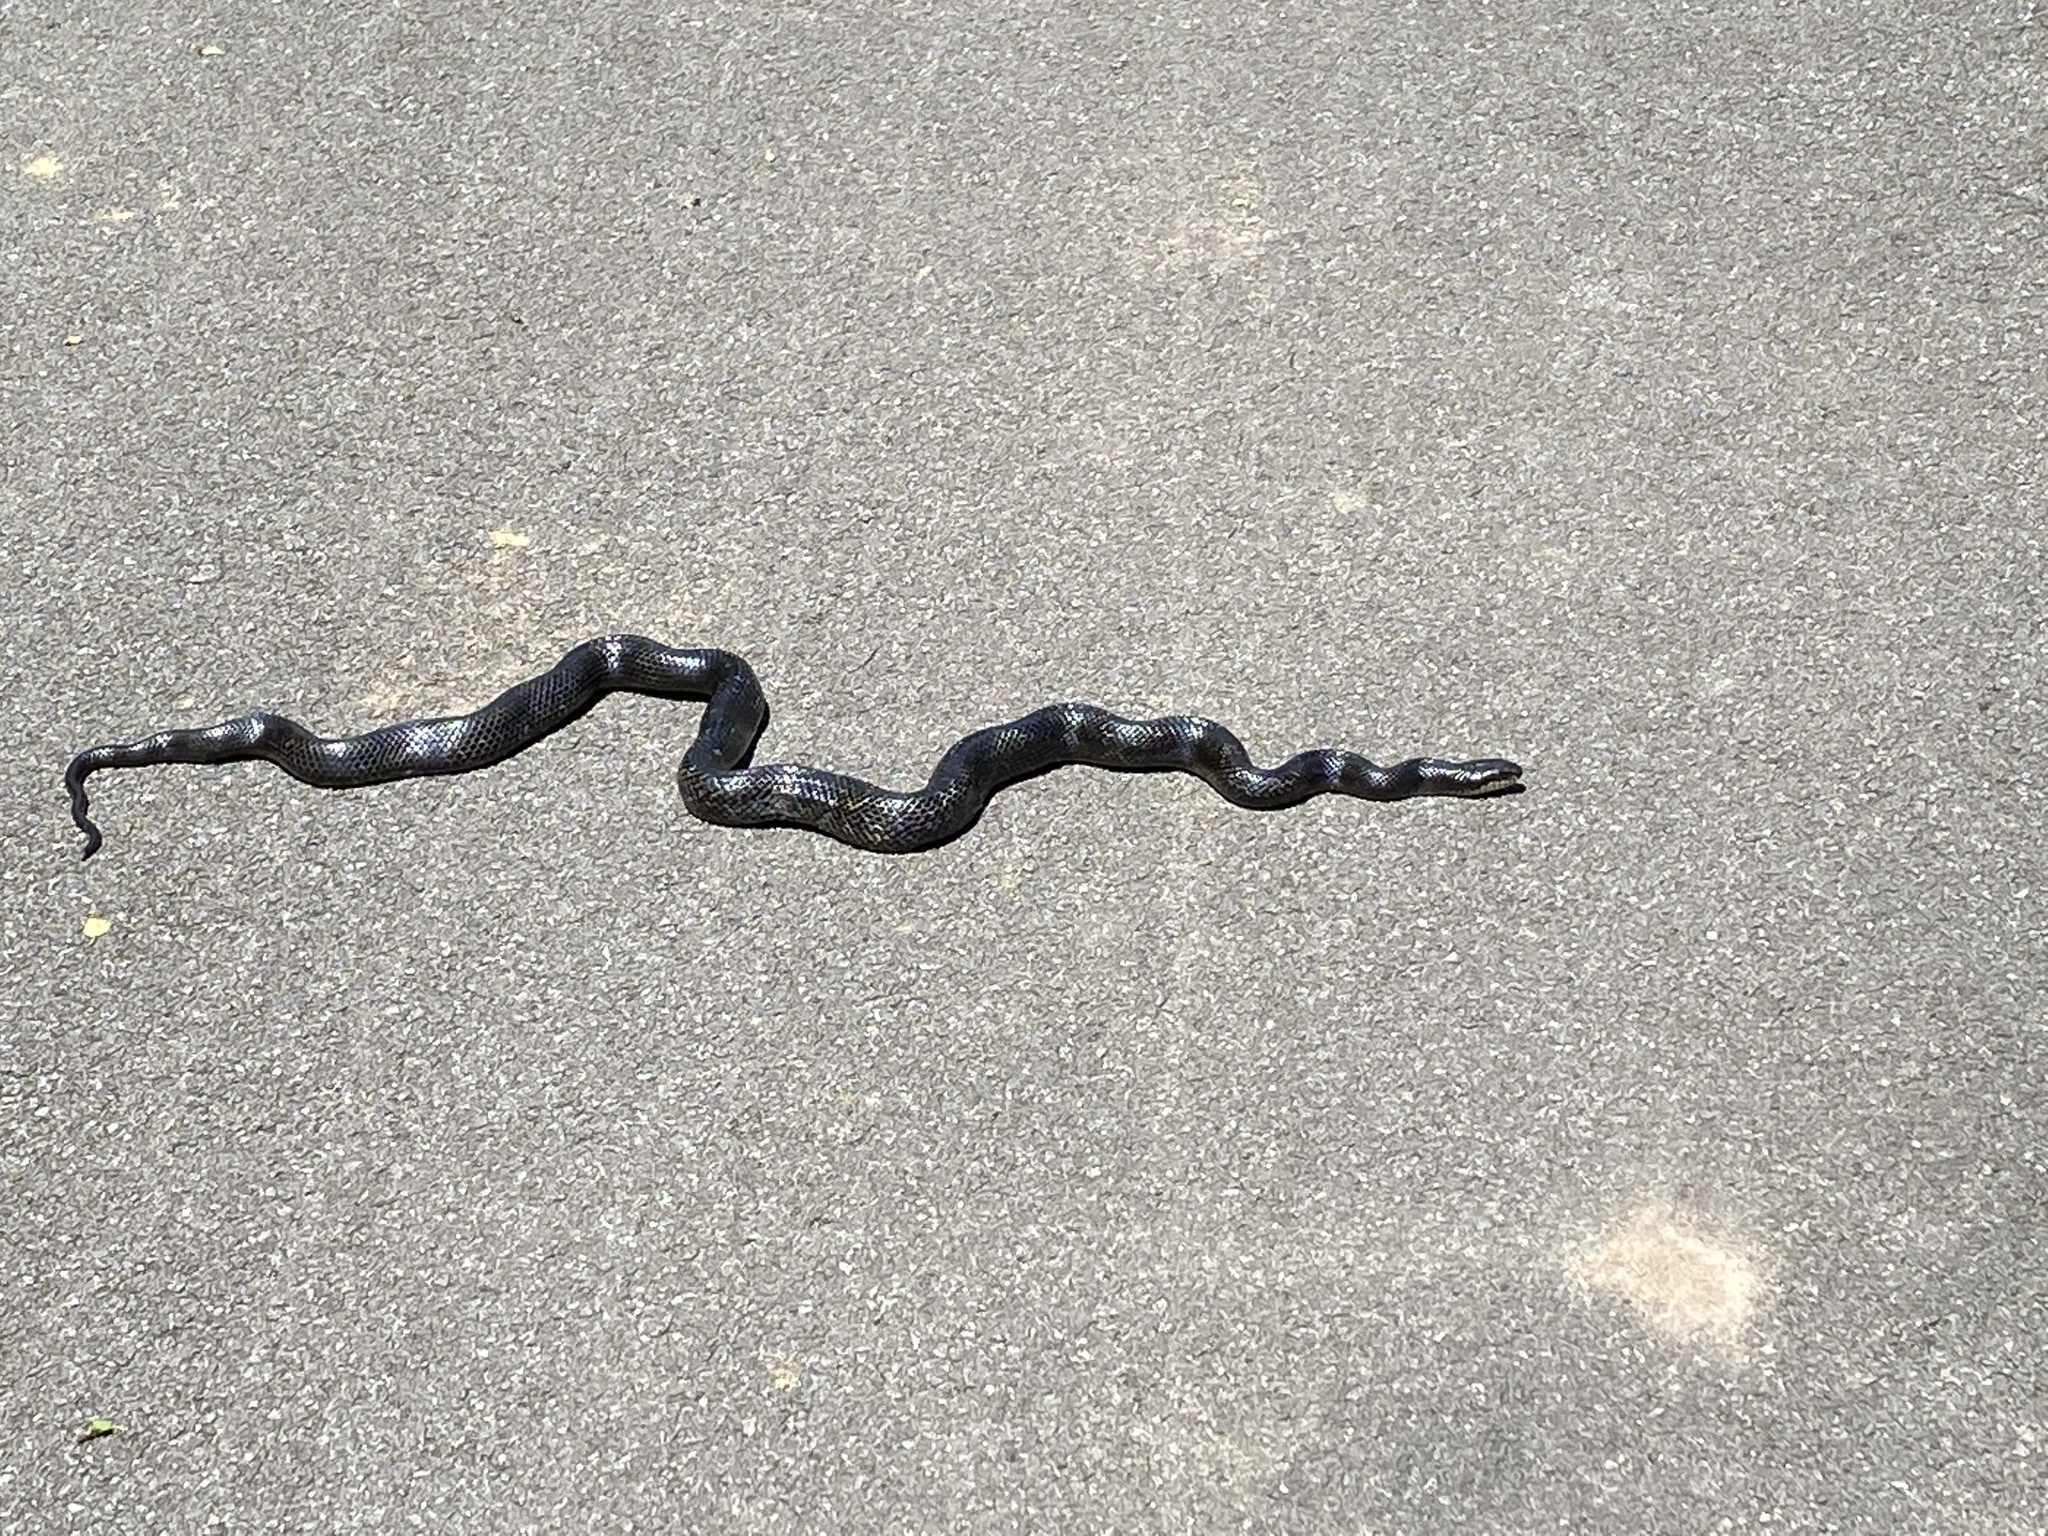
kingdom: Animalia
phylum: Chordata
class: Squamata
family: Colubridae
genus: Pantherophis
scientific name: Pantherophis spiloides
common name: Gray rat snake
